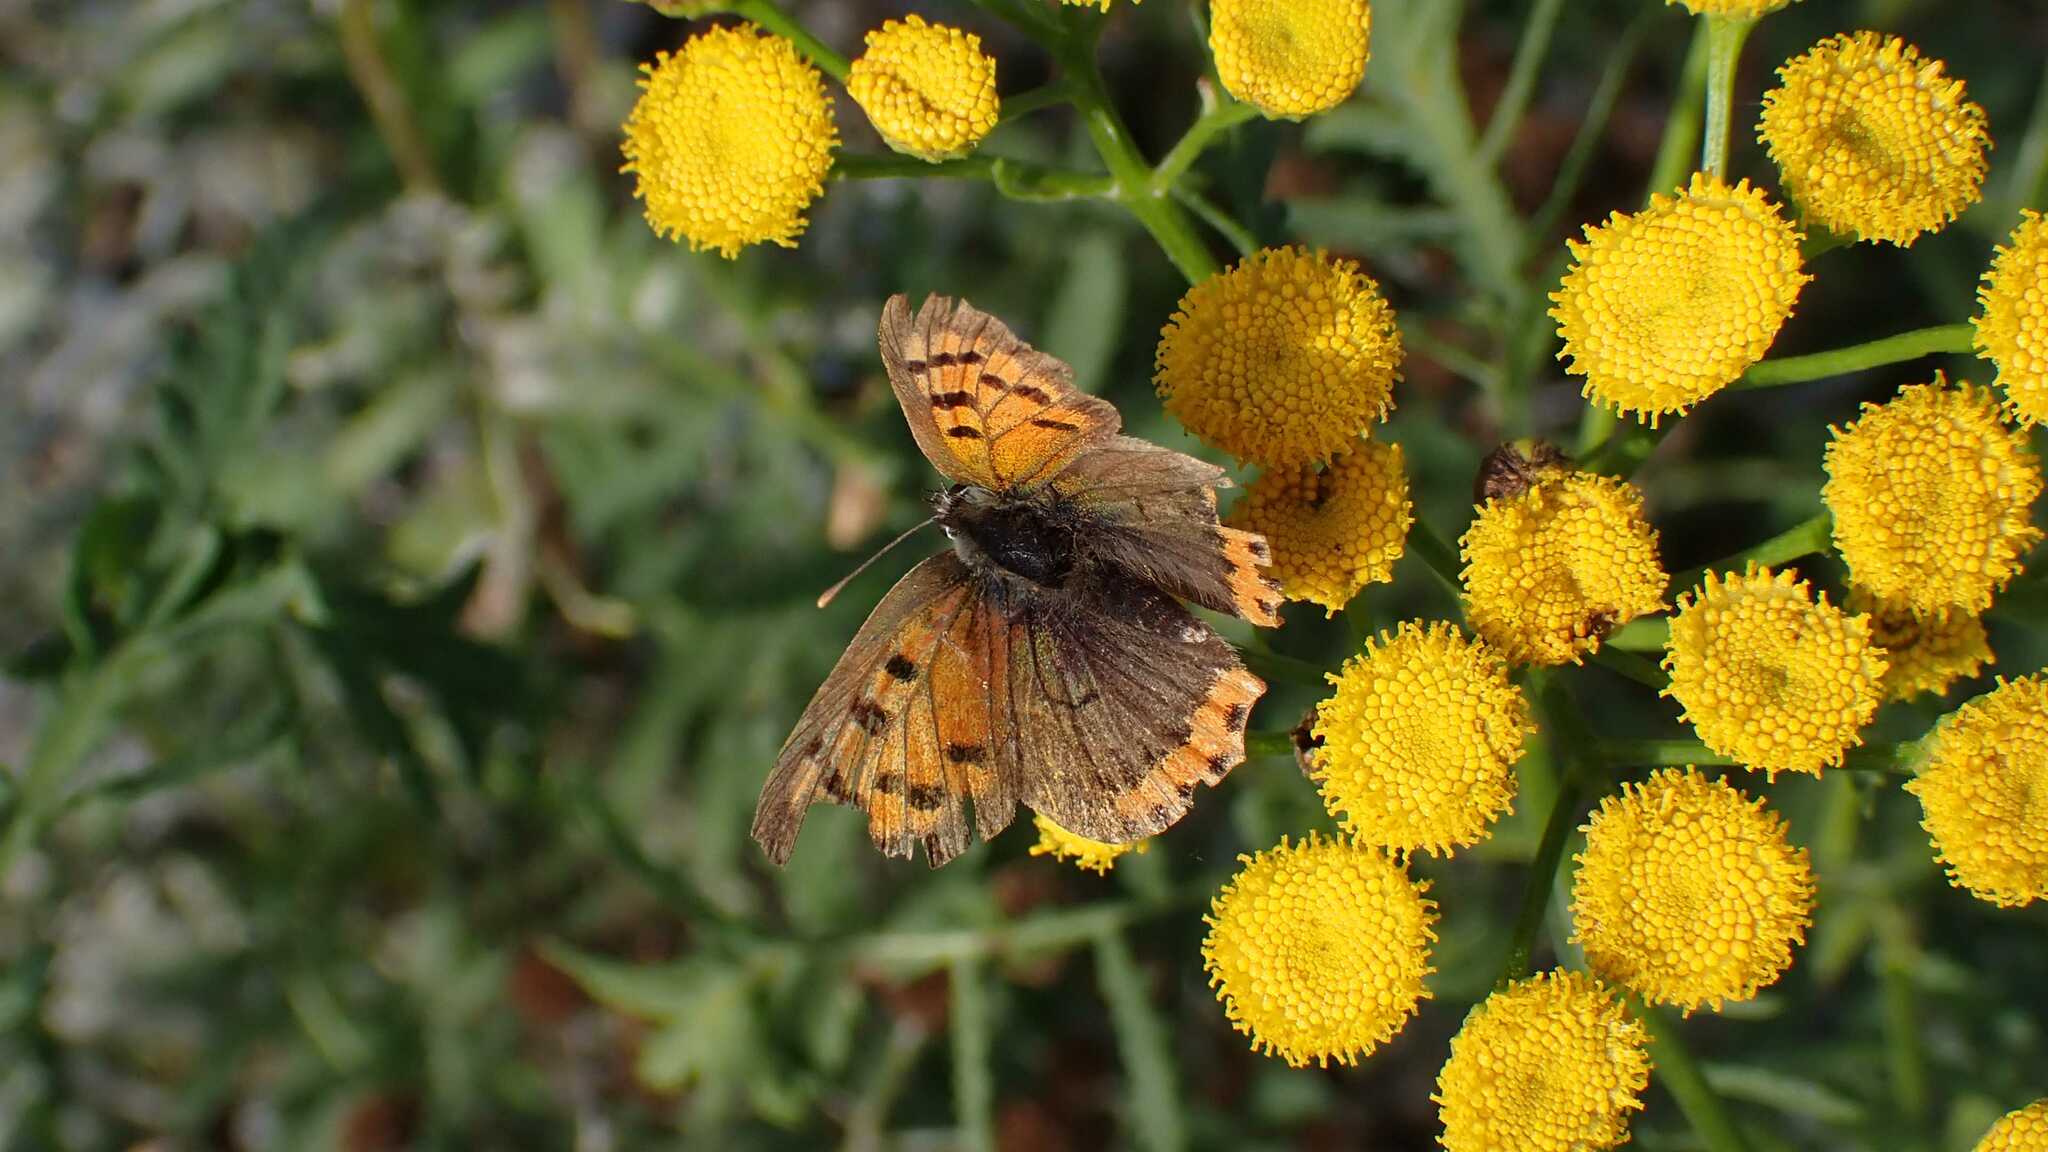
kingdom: Animalia
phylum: Arthropoda
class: Insecta
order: Lepidoptera
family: Lycaenidae
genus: Lycaena
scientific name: Lycaena phlaeas
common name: Small copper
